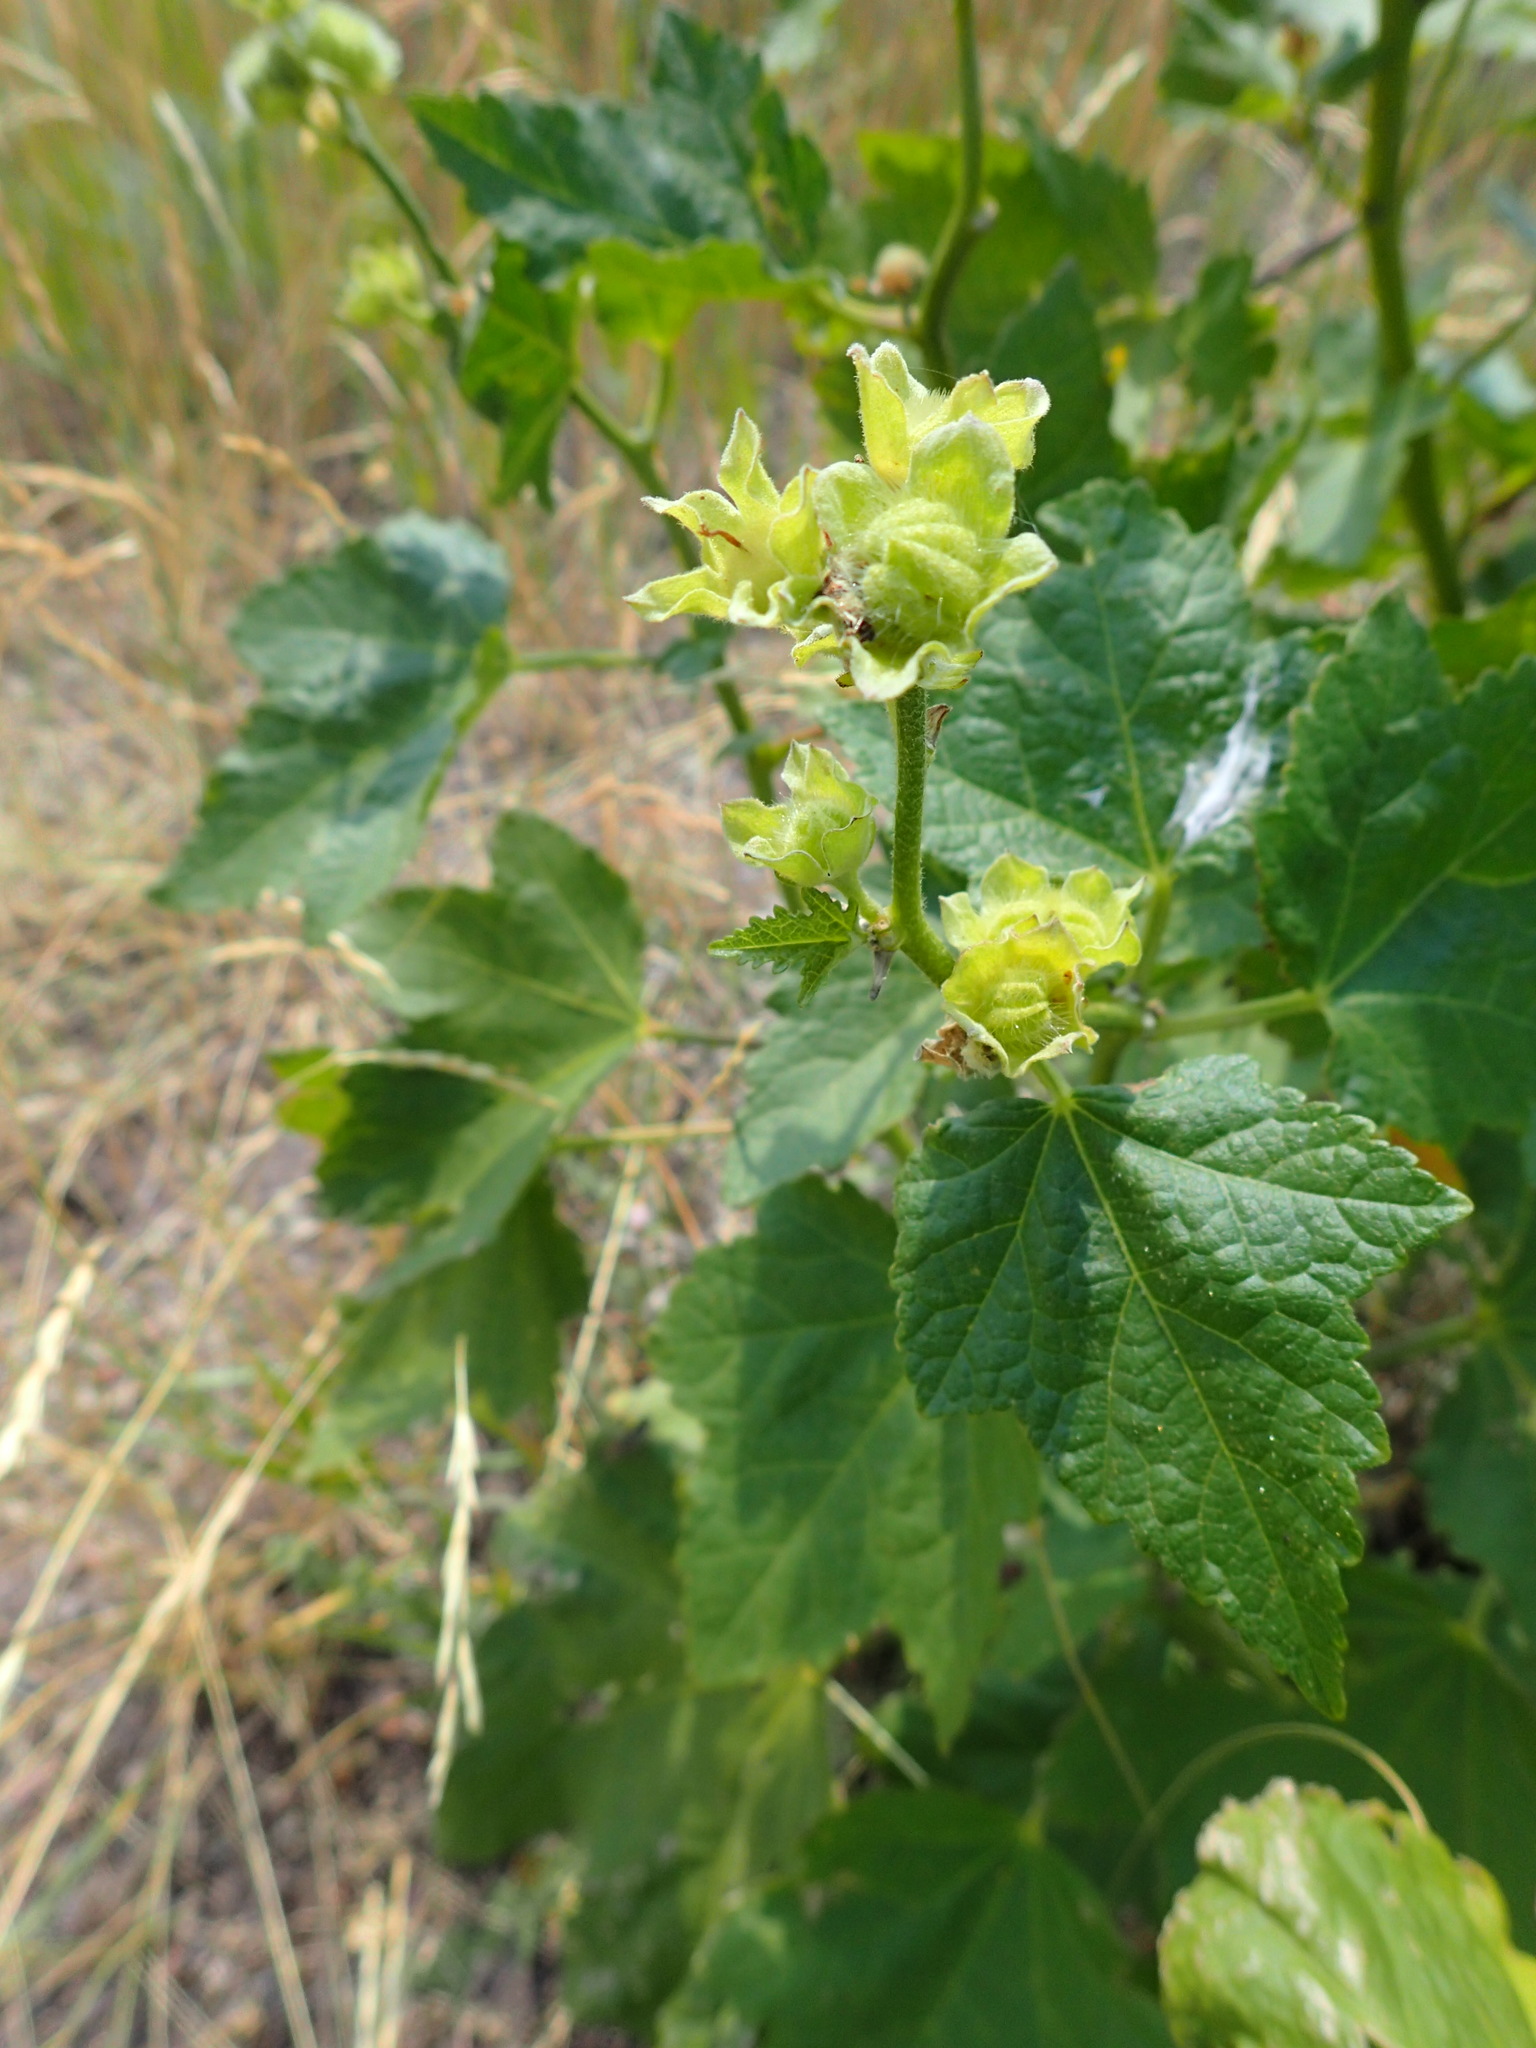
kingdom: Plantae
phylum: Tracheophyta
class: Magnoliopsida
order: Malvales
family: Malvaceae
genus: Iliamna
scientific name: Iliamna rivularis
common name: Wild hollyhock
